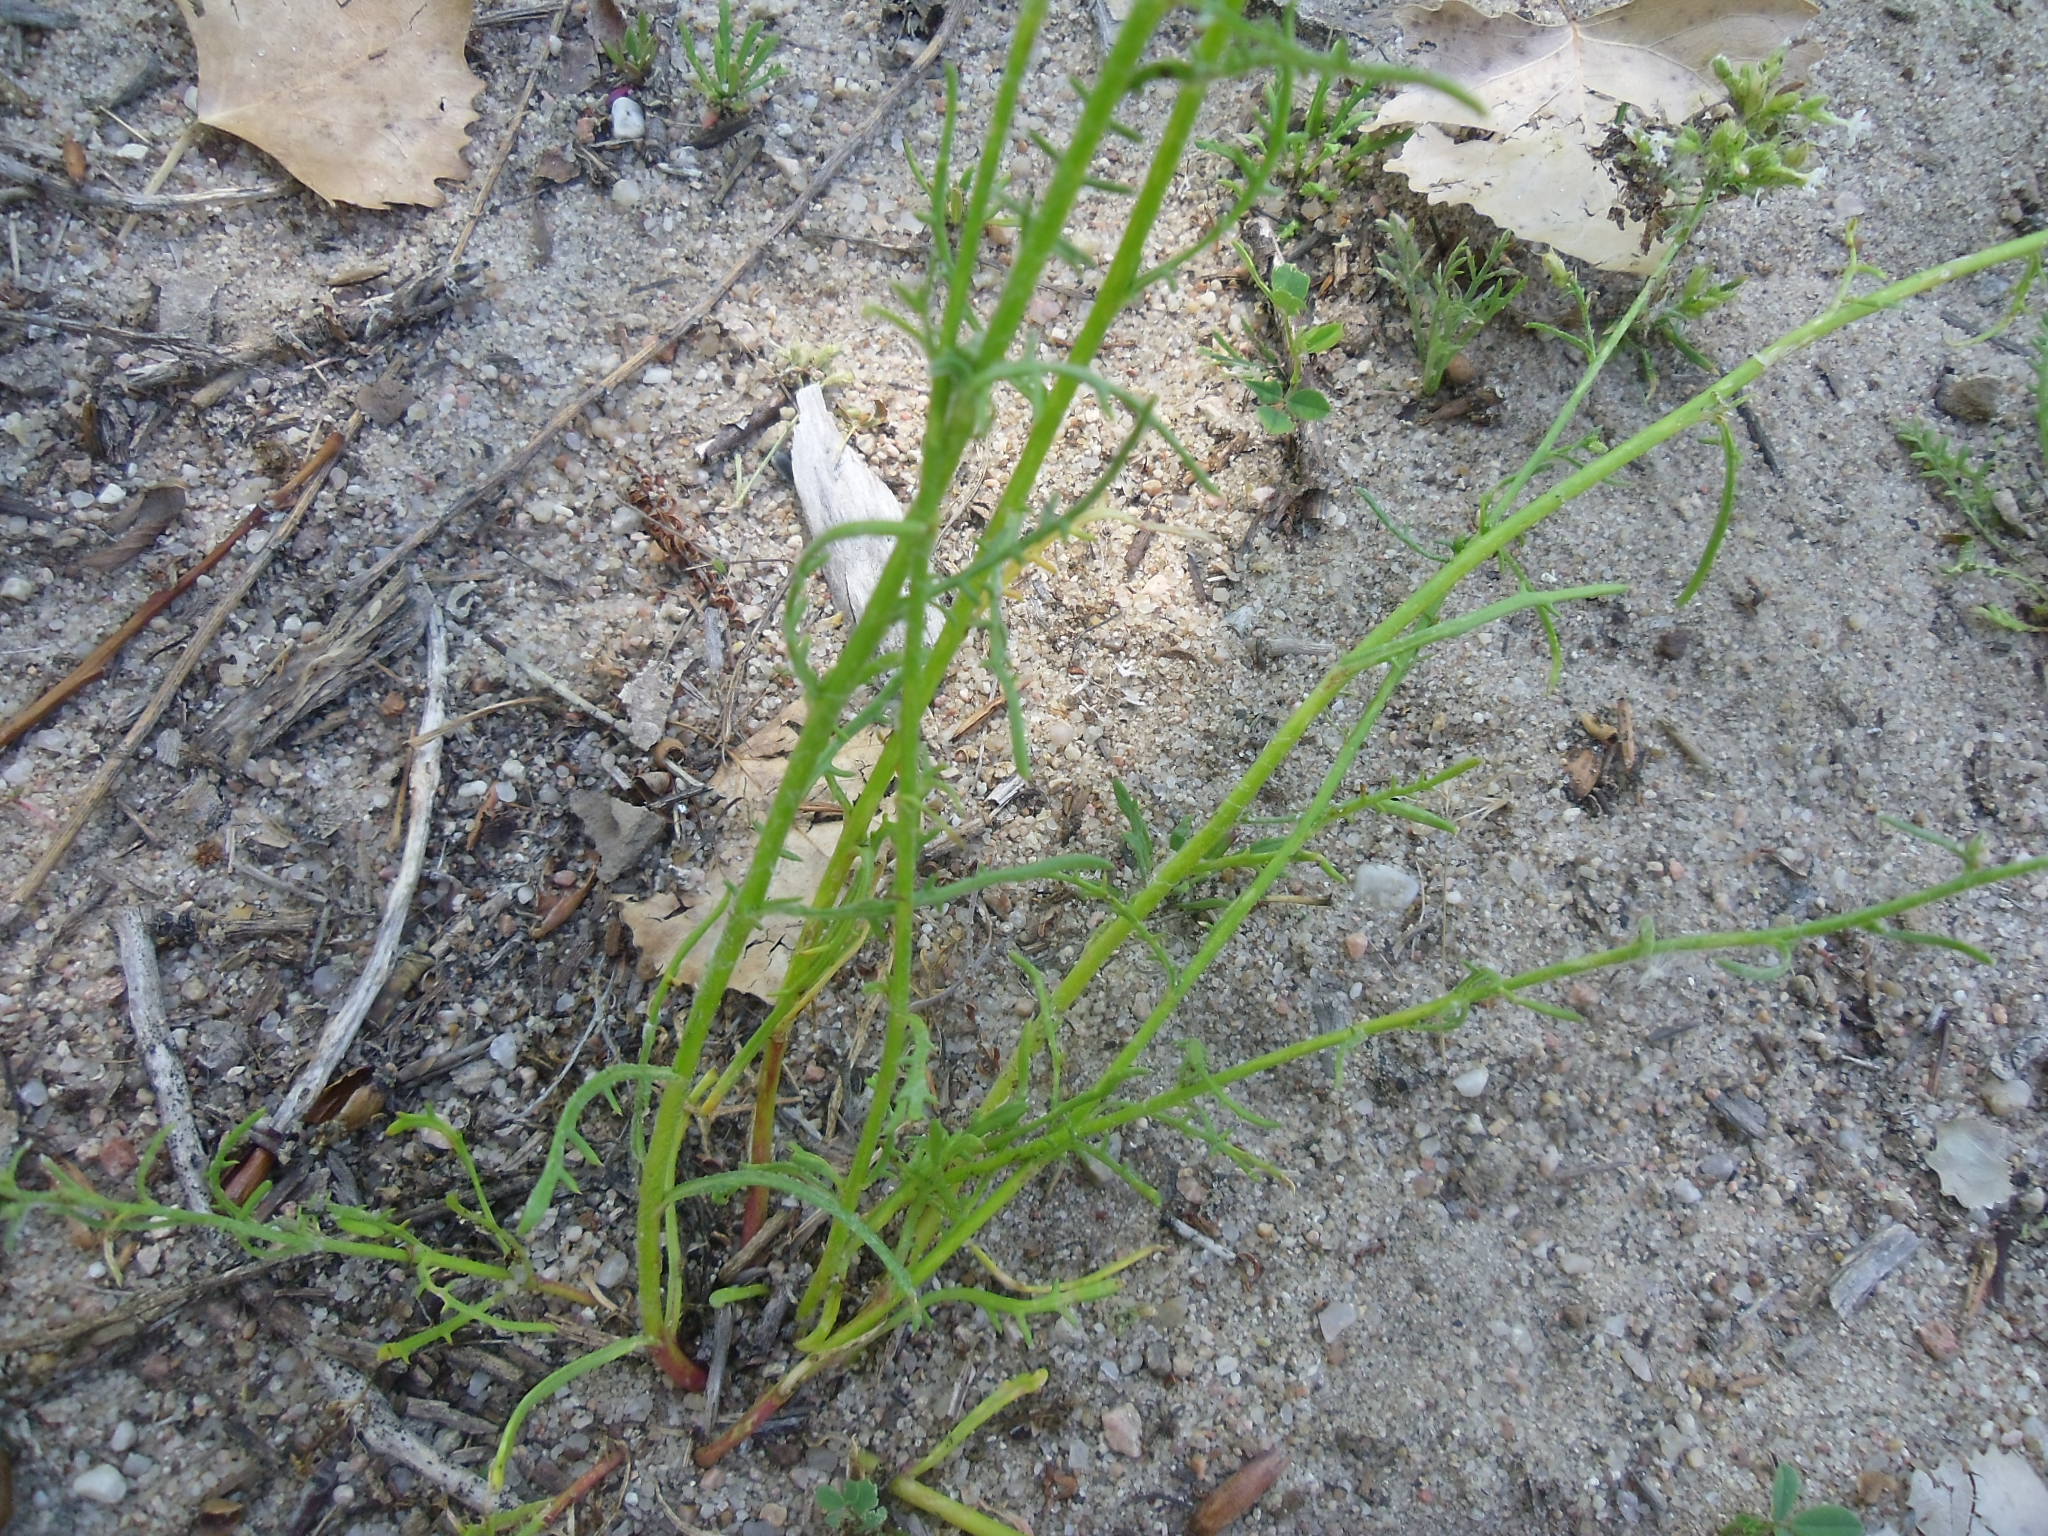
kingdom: Plantae
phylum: Tracheophyta
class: Magnoliopsida
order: Ericales
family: Polemoniaceae
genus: Aliciella
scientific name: Aliciella pinnatifida
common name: Sticky gilia
